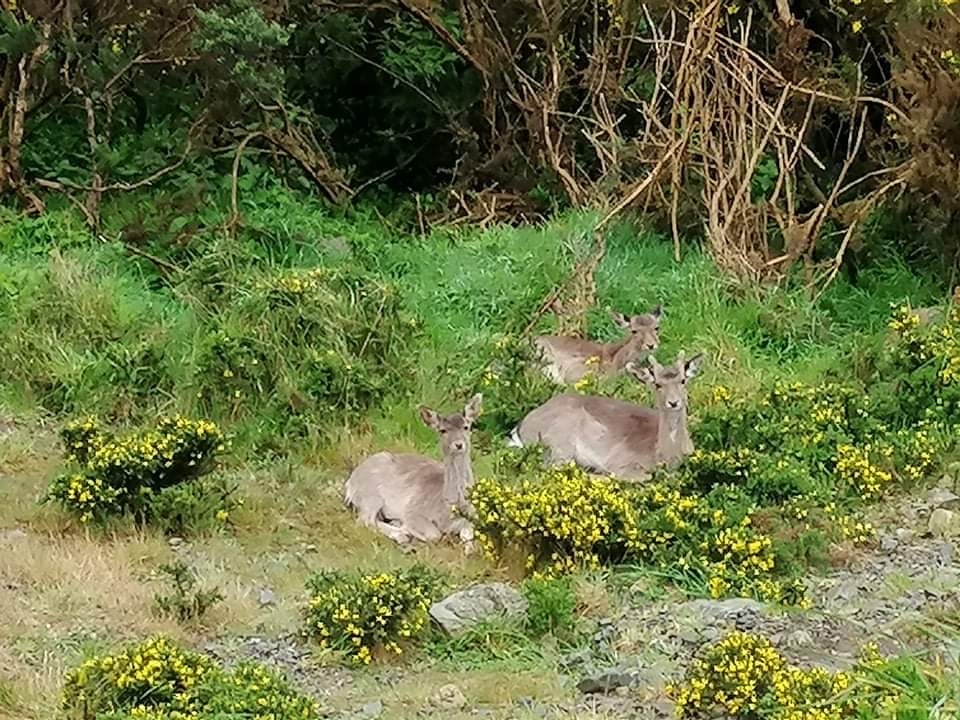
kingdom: Animalia
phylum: Chordata
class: Mammalia
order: Artiodactyla
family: Cervidae
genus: Dama
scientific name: Dama dama
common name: Fallow deer
